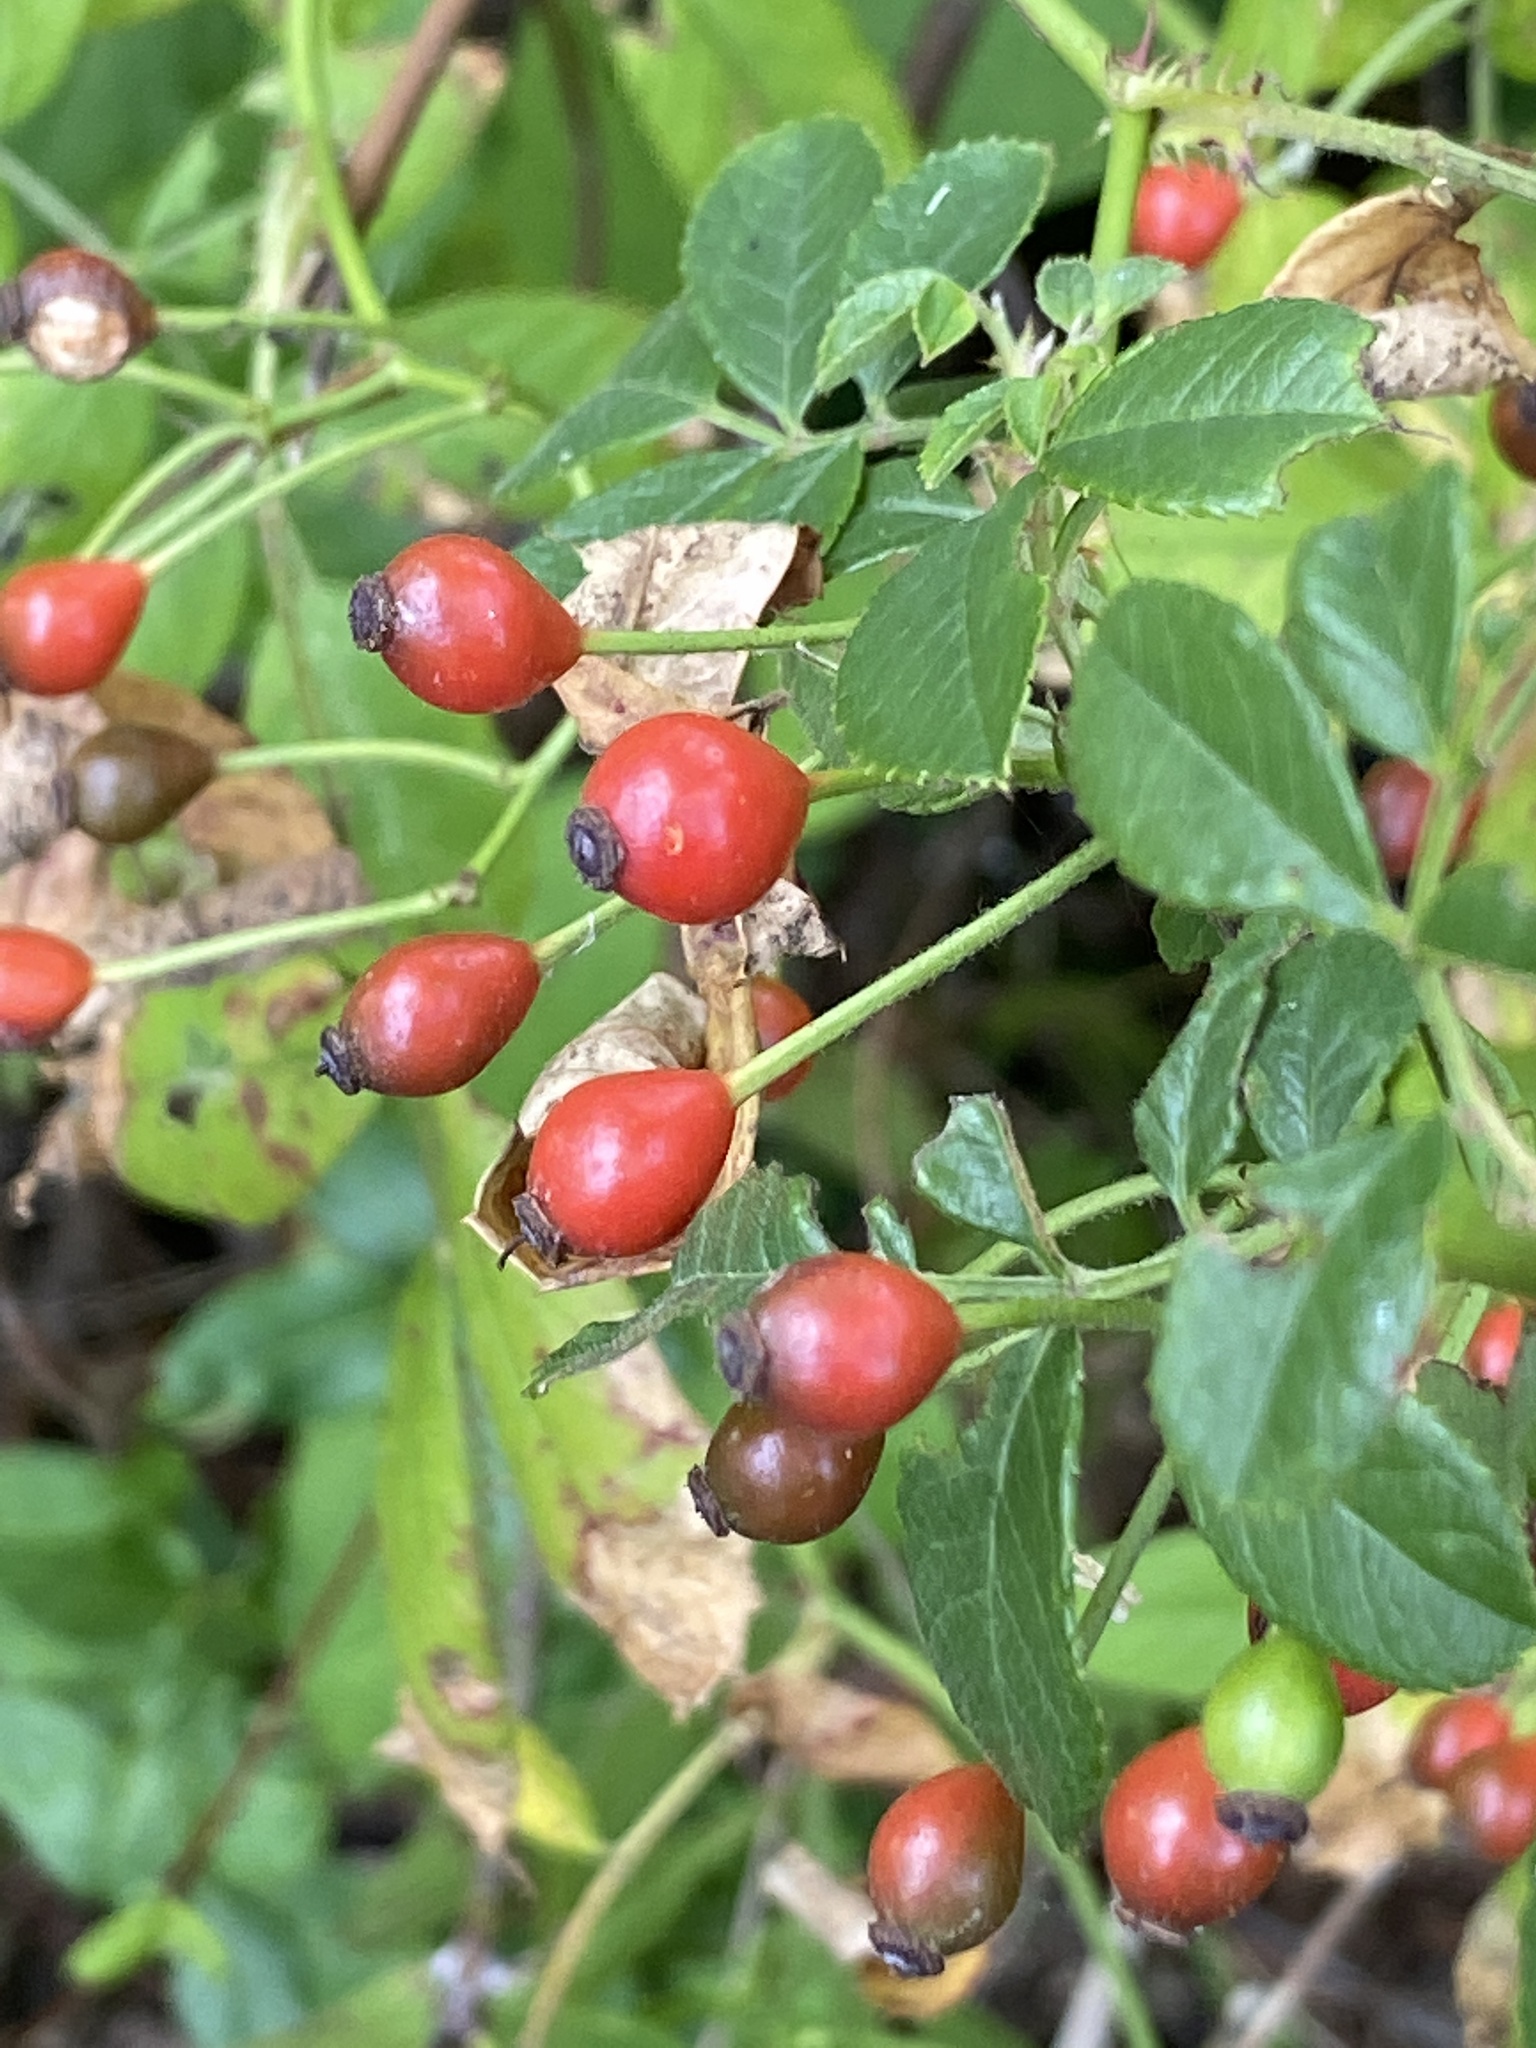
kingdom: Plantae
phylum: Tracheophyta
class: Magnoliopsida
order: Rosales
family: Rosaceae
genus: Rosa
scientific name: Rosa multiflora
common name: Multiflora rose
